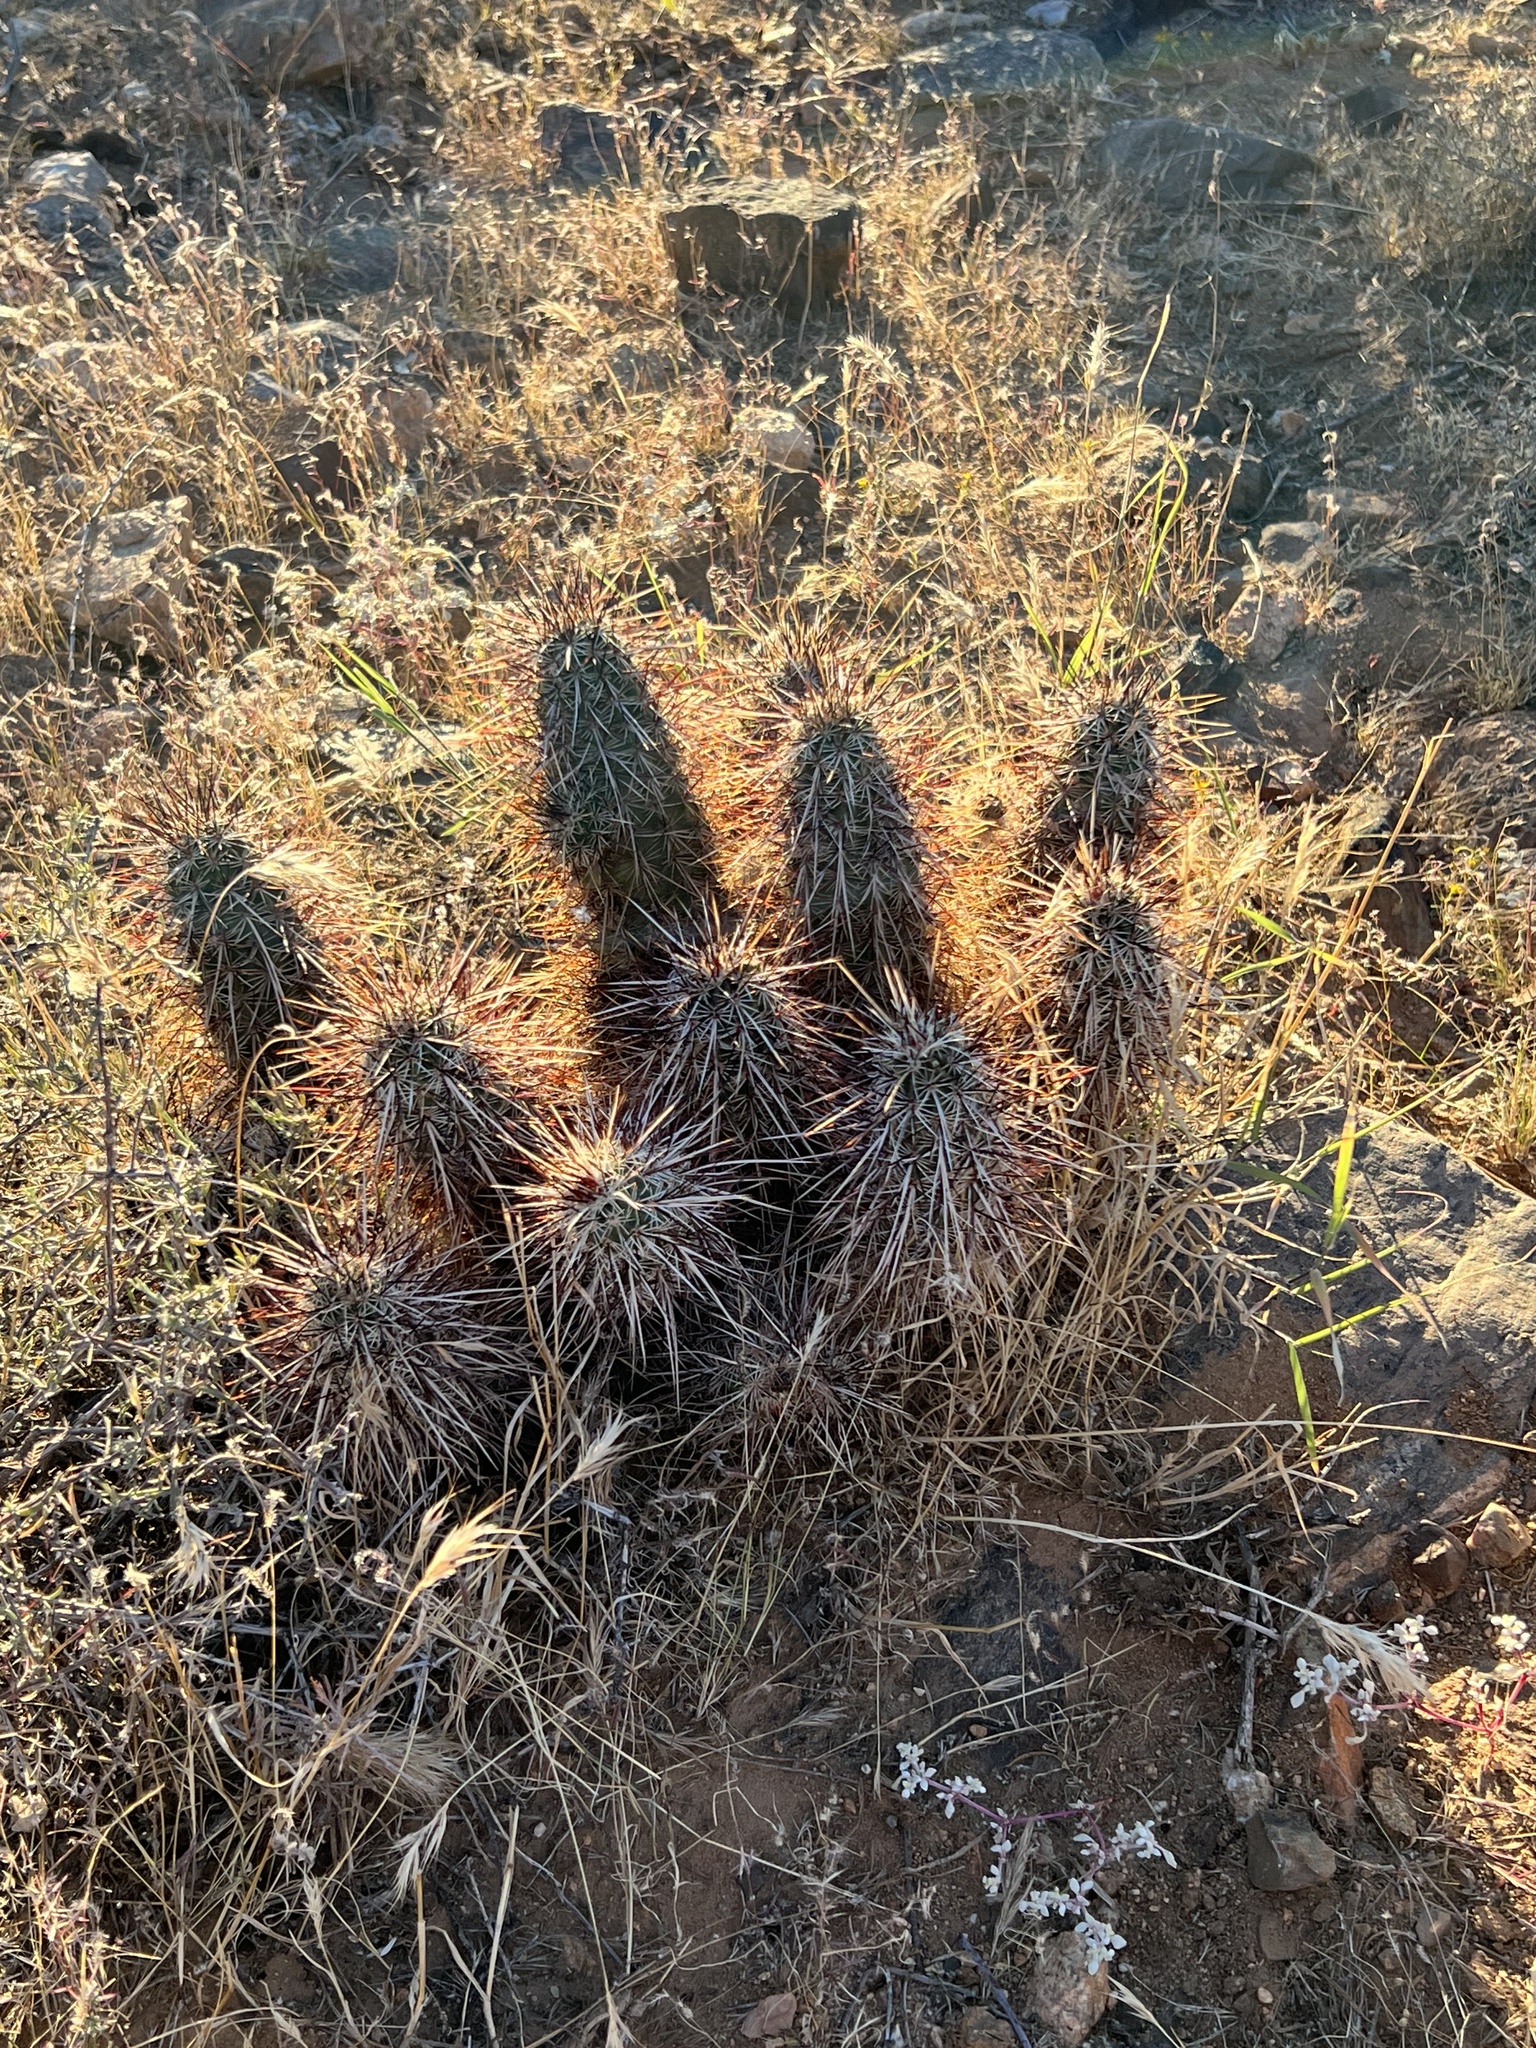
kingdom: Plantae
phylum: Tracheophyta
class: Magnoliopsida
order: Caryophyllales
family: Cactaceae
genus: Echinocereus
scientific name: Echinocereus engelmannii
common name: Engelmann's hedgehog cactus
